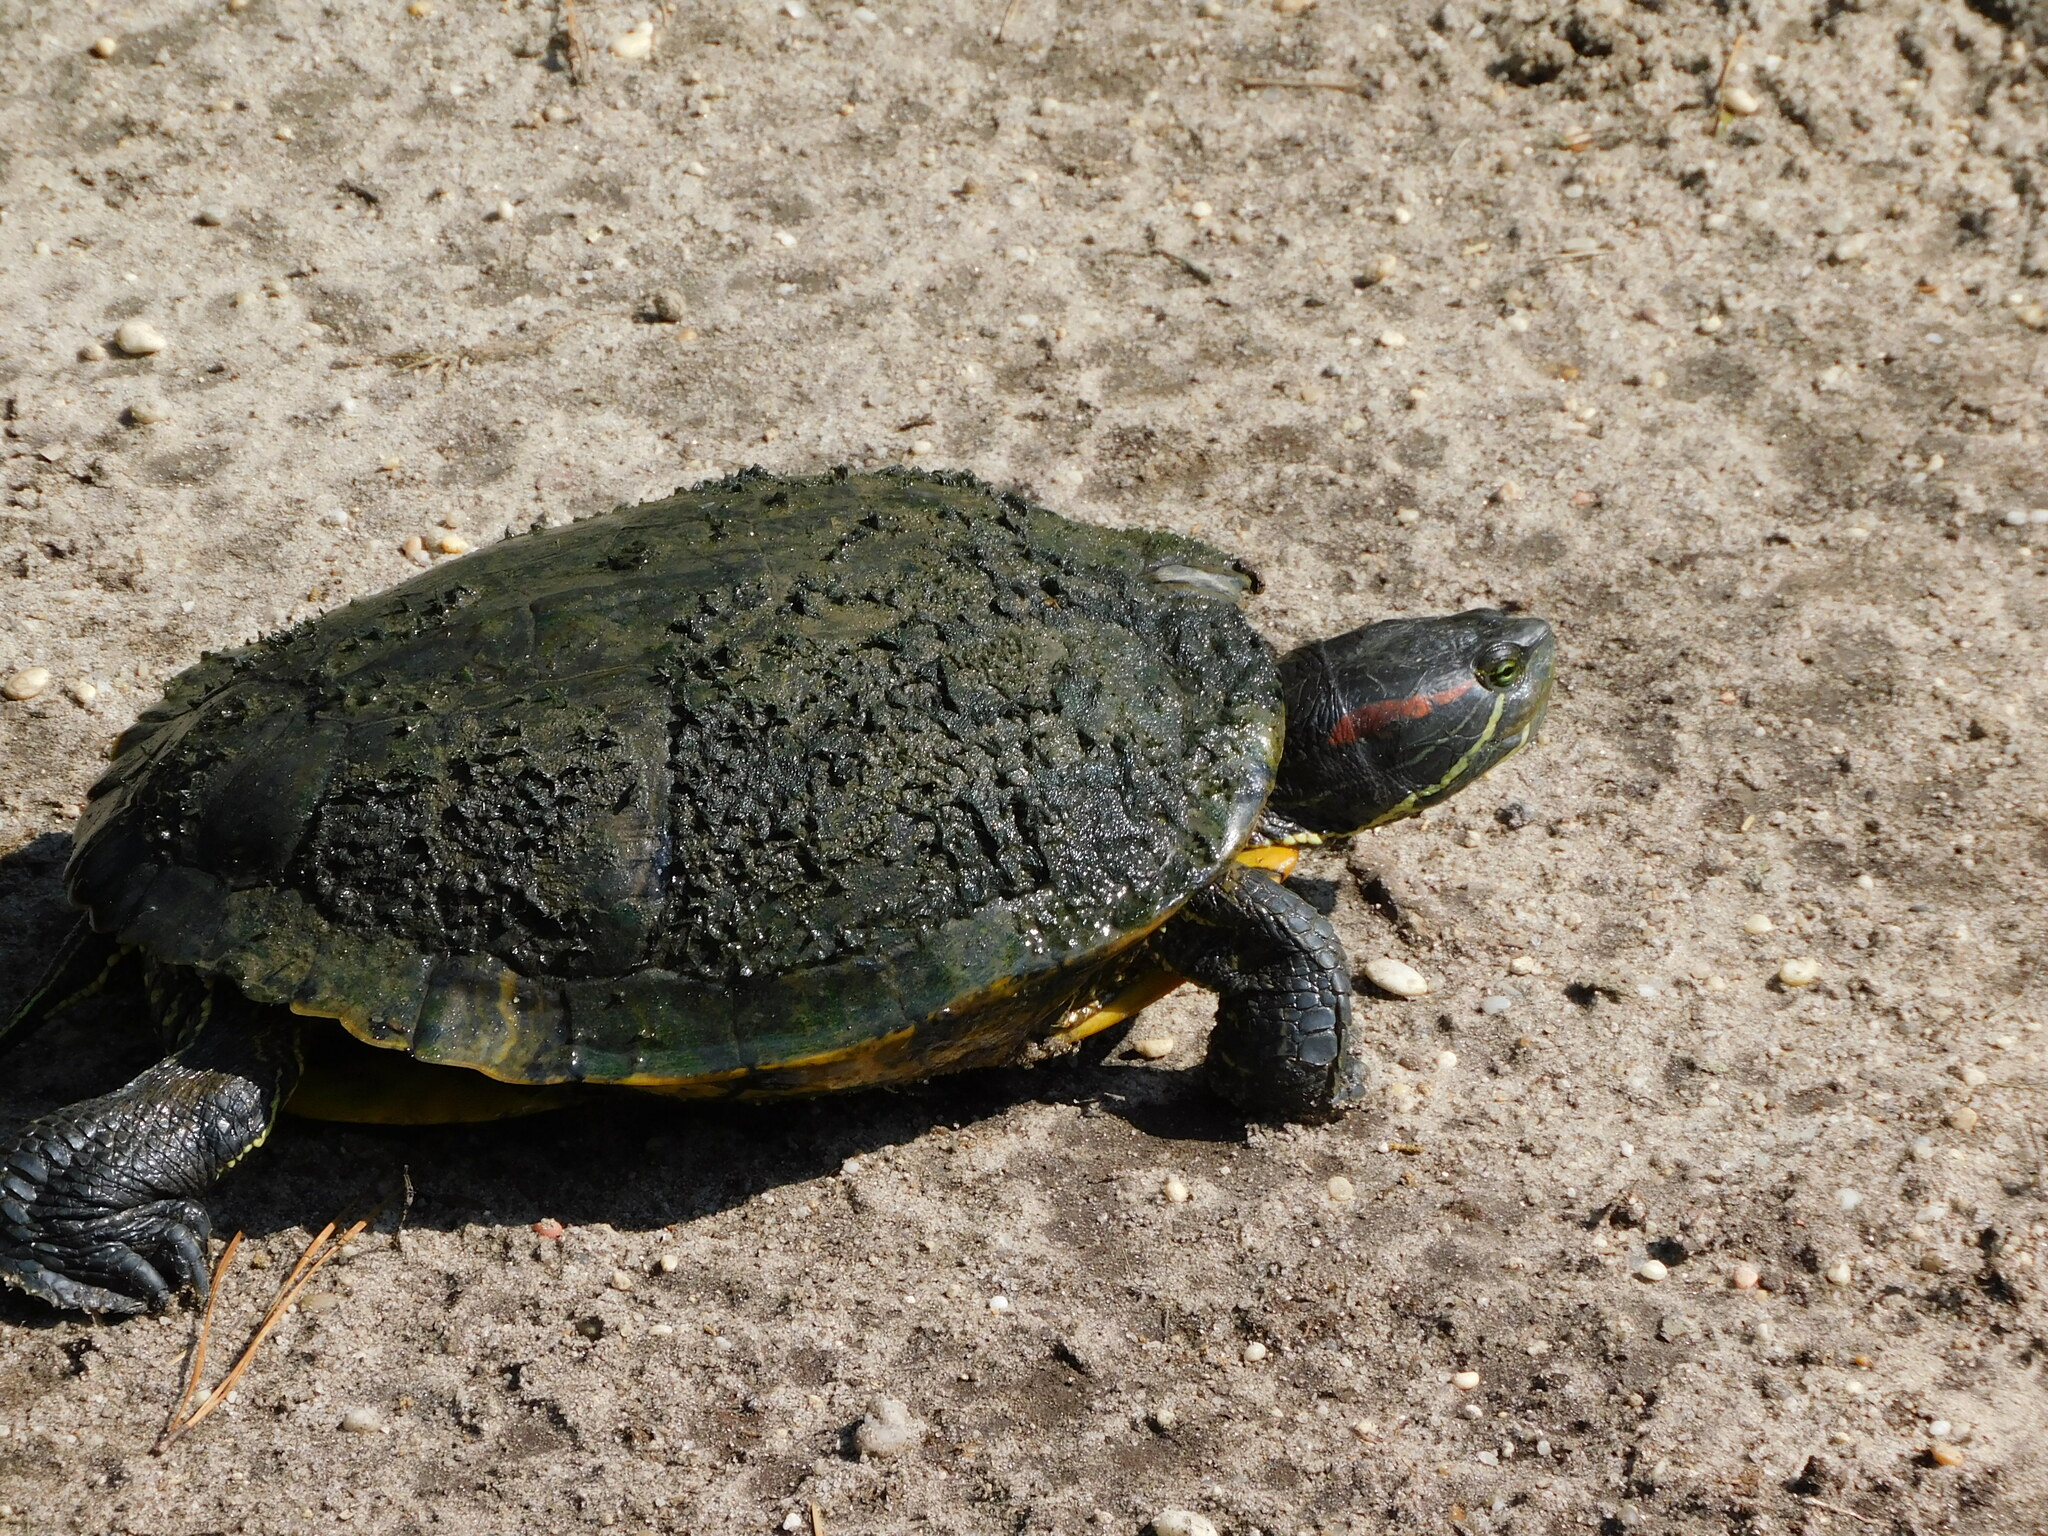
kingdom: Animalia
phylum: Chordata
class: Testudines
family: Emydidae
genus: Trachemys
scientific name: Trachemys scripta
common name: Slider
